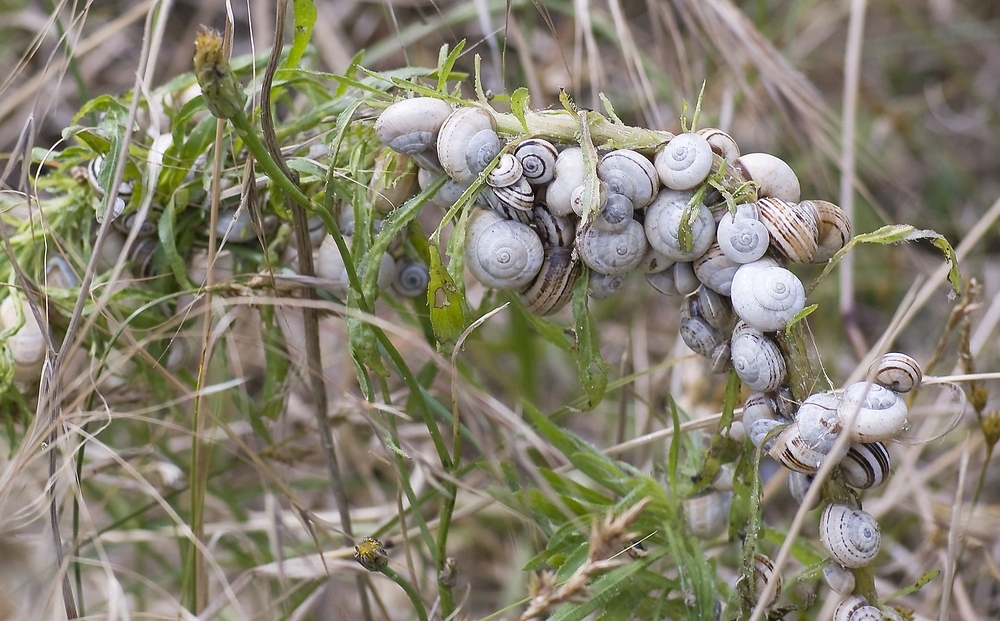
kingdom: Animalia
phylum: Mollusca
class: Gastropoda
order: Stylommatophora
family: Helicidae
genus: Theba
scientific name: Theba pisana
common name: White snail
